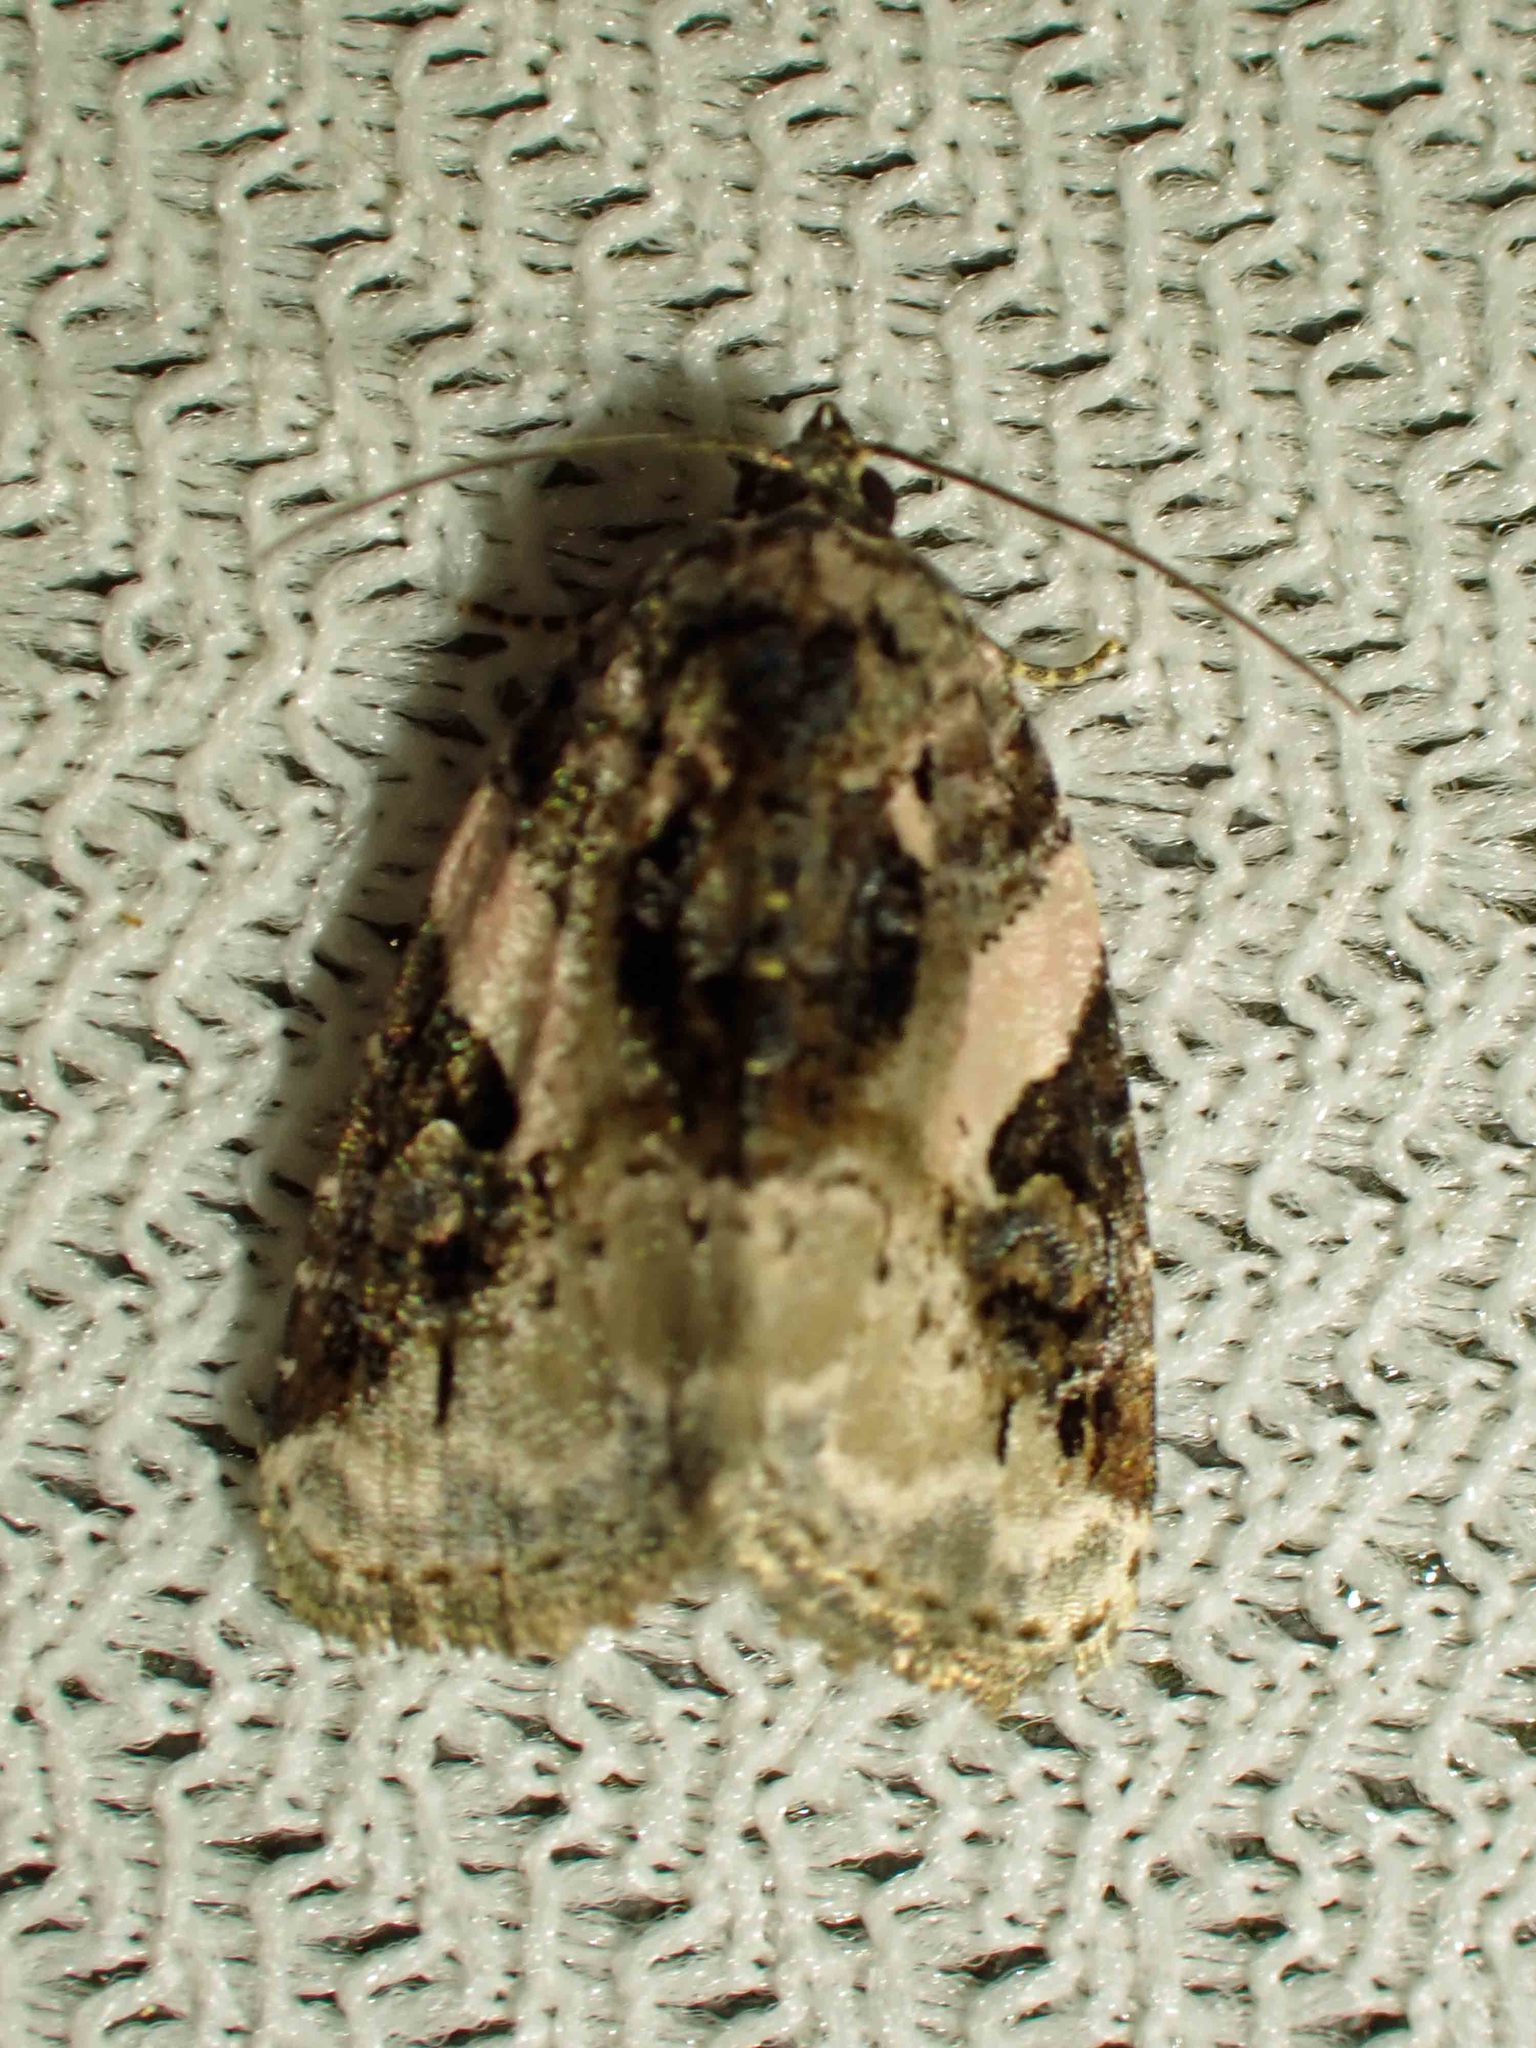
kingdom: Animalia
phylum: Arthropoda
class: Insecta
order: Lepidoptera
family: Noctuidae
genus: Pseudeustrotia
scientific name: Pseudeustrotia carneola
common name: Pink-barred lithacodia moth
